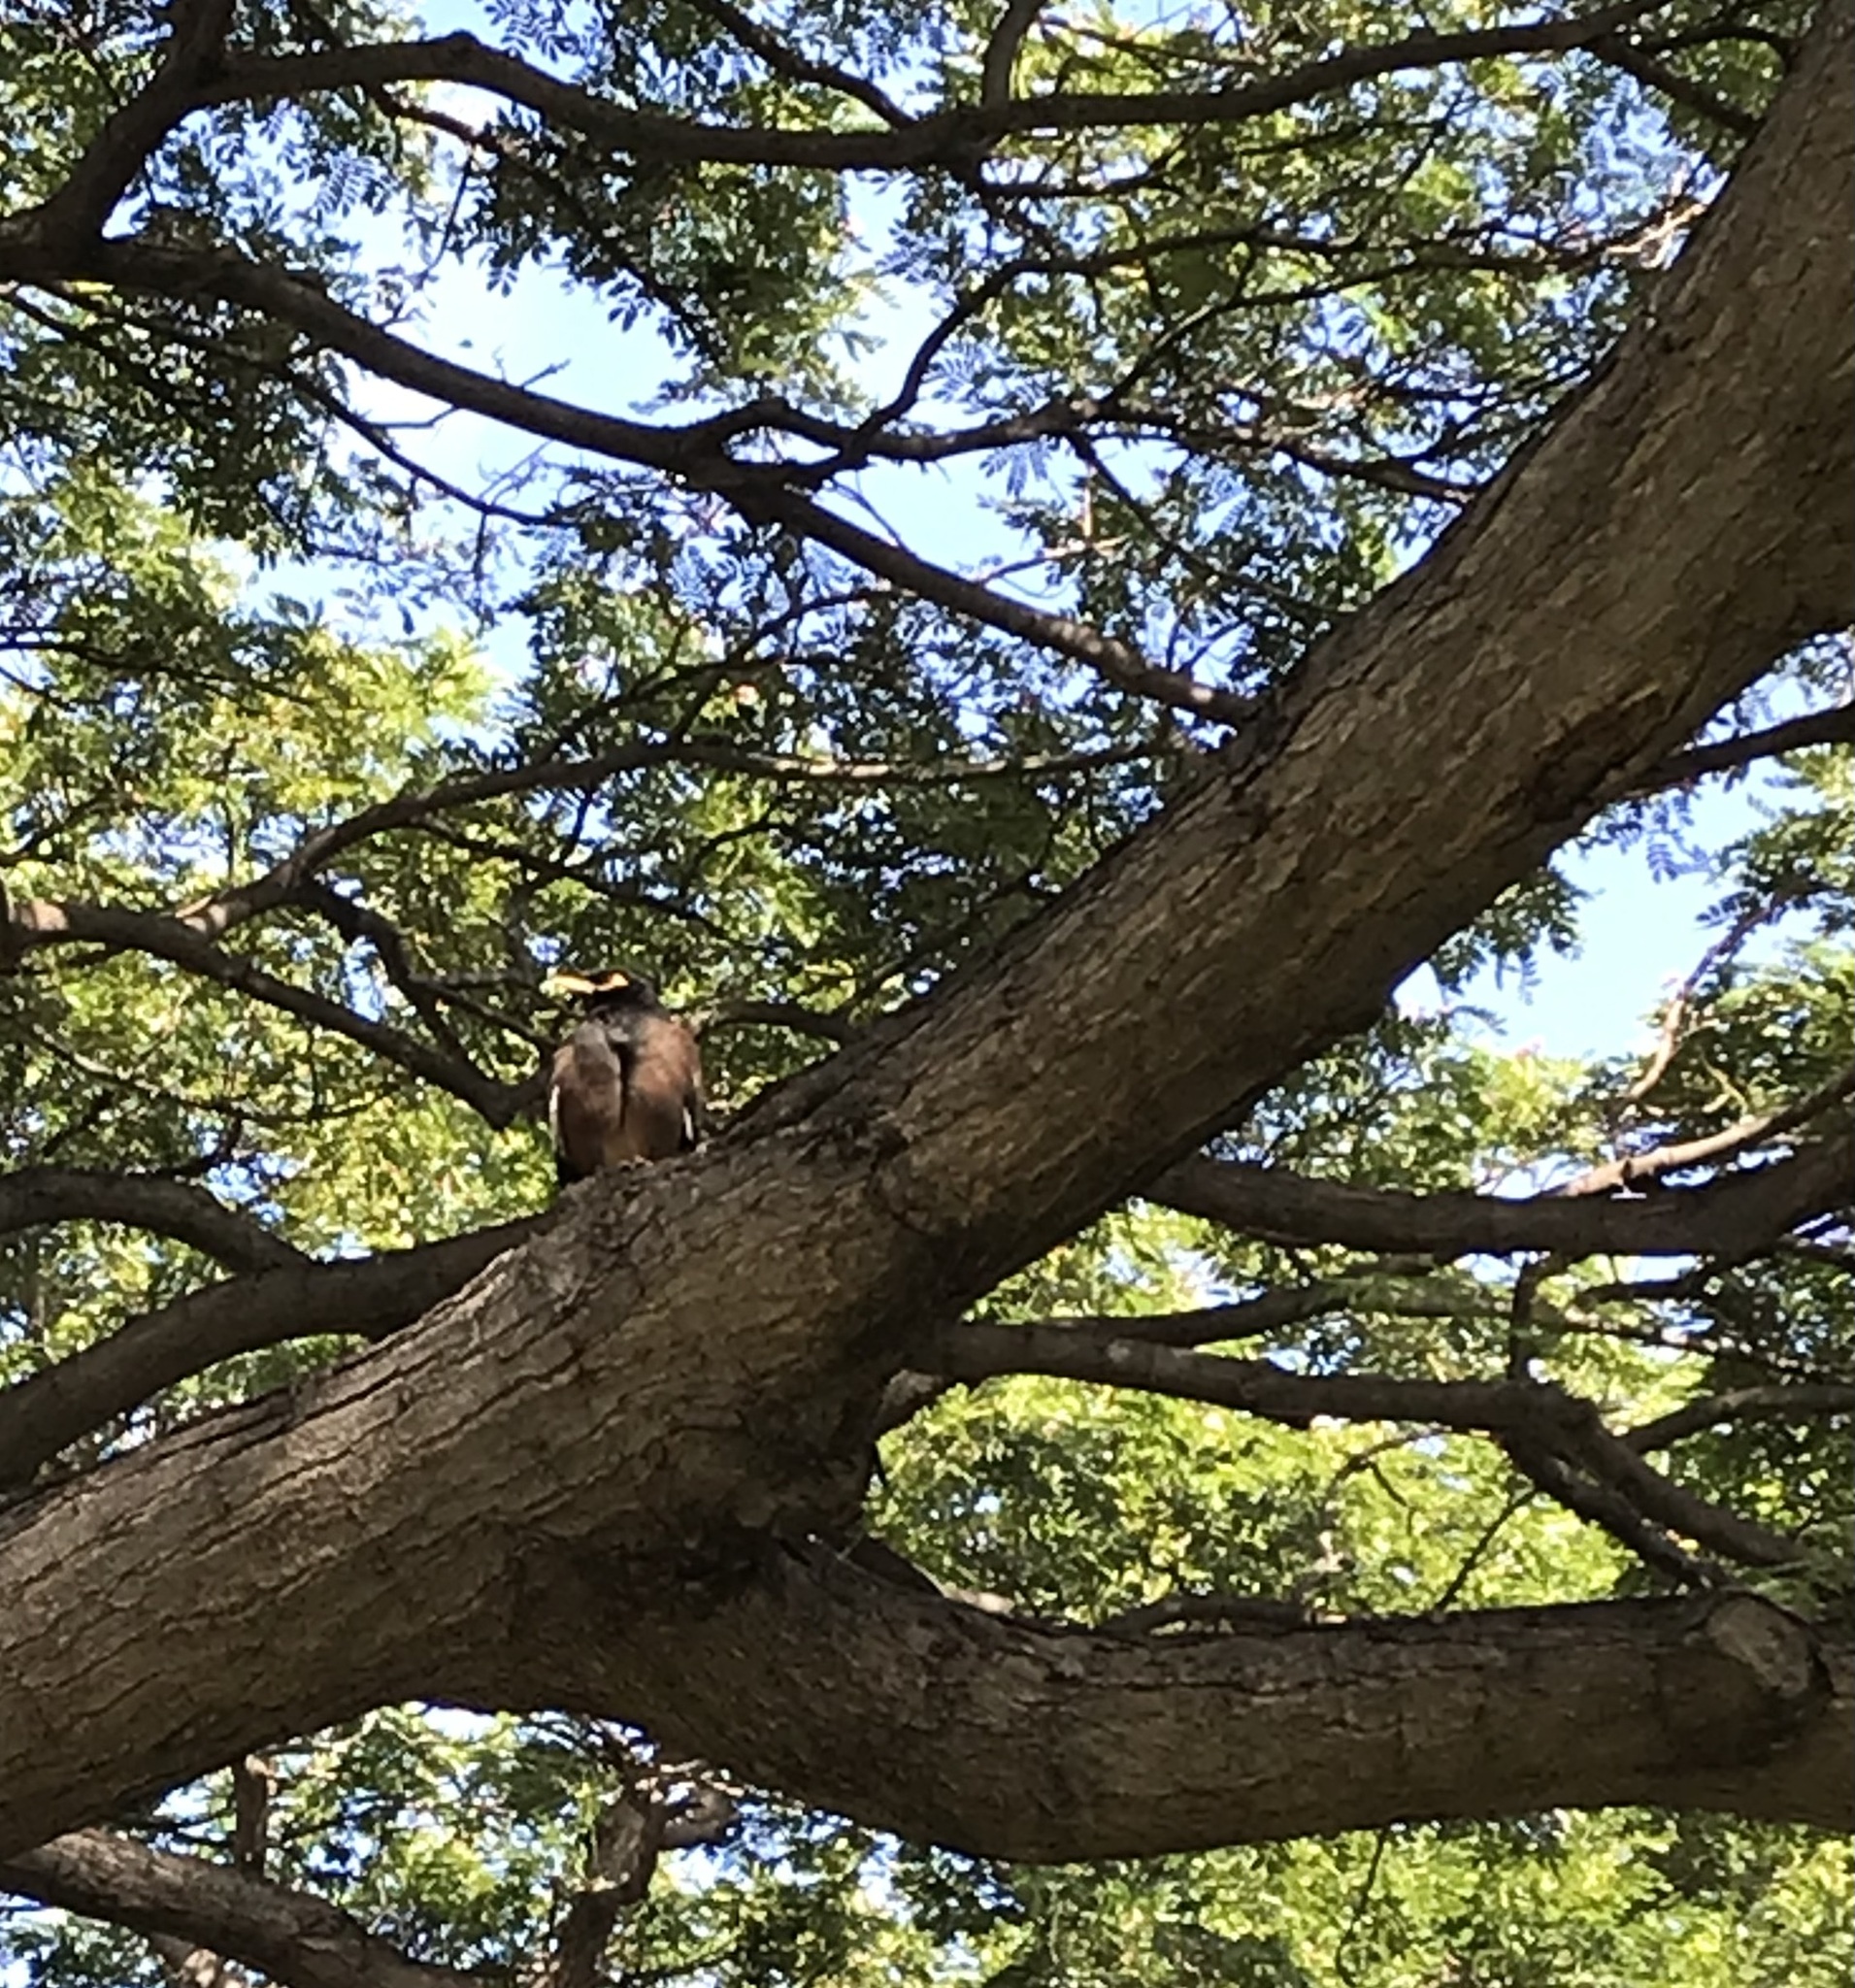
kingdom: Animalia
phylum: Chordata
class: Aves
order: Passeriformes
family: Sturnidae
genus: Acridotheres
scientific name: Acridotheres tristis
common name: Common myna
